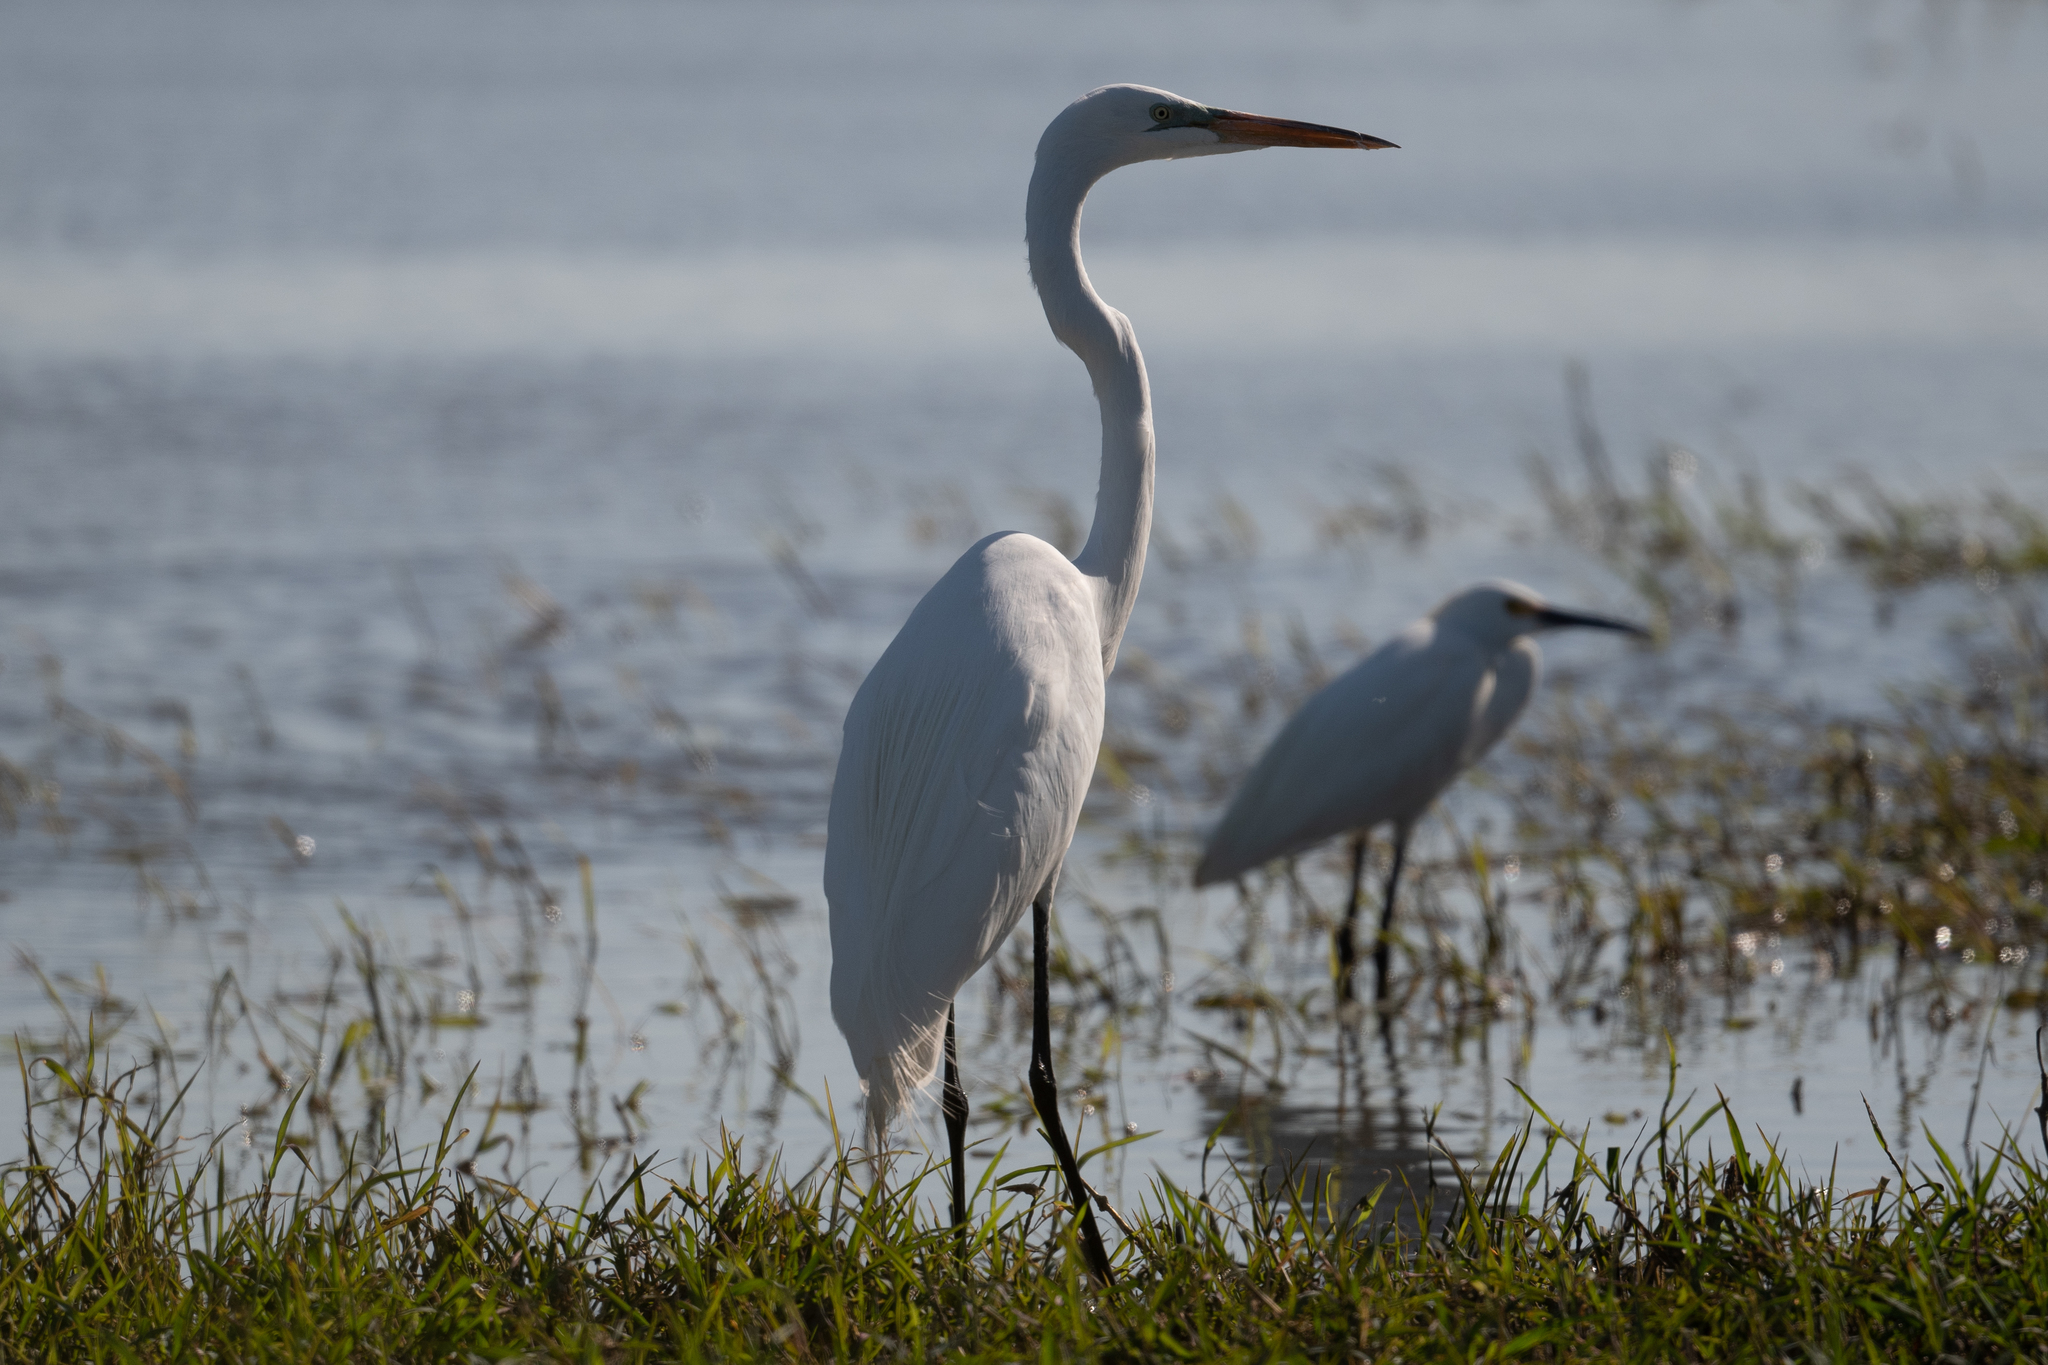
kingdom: Animalia
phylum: Chordata
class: Aves
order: Pelecaniformes
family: Ardeidae
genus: Ardea
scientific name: Ardea alba
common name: Great egret
